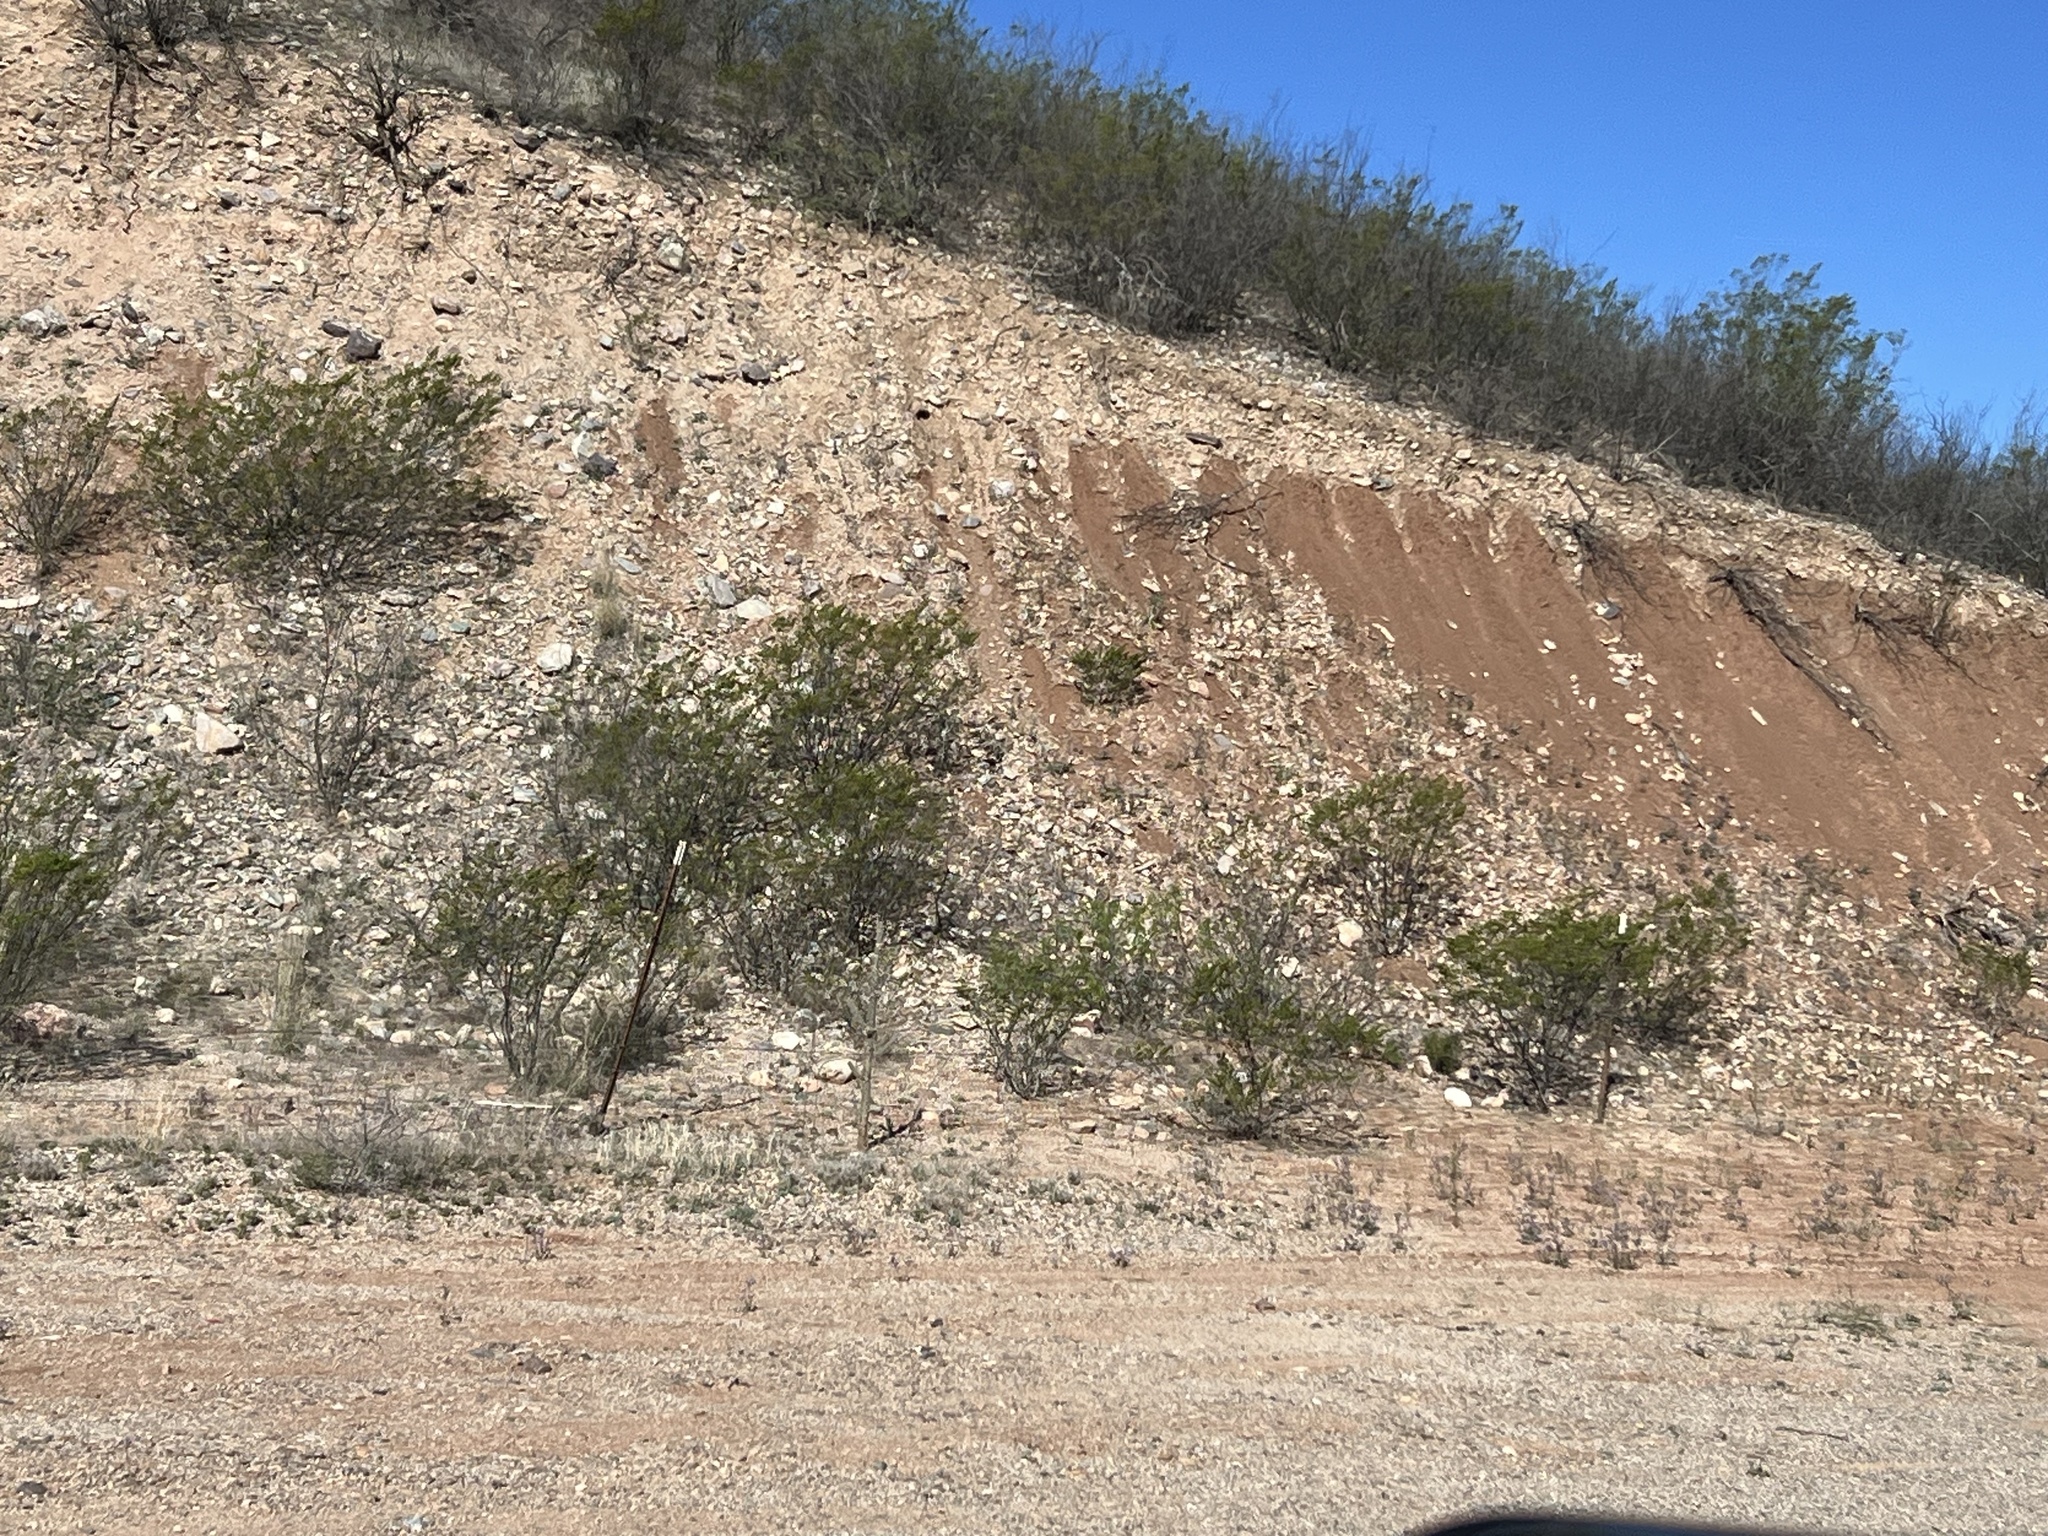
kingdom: Plantae
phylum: Tracheophyta
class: Magnoliopsida
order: Zygophyllales
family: Zygophyllaceae
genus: Larrea
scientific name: Larrea tridentata
